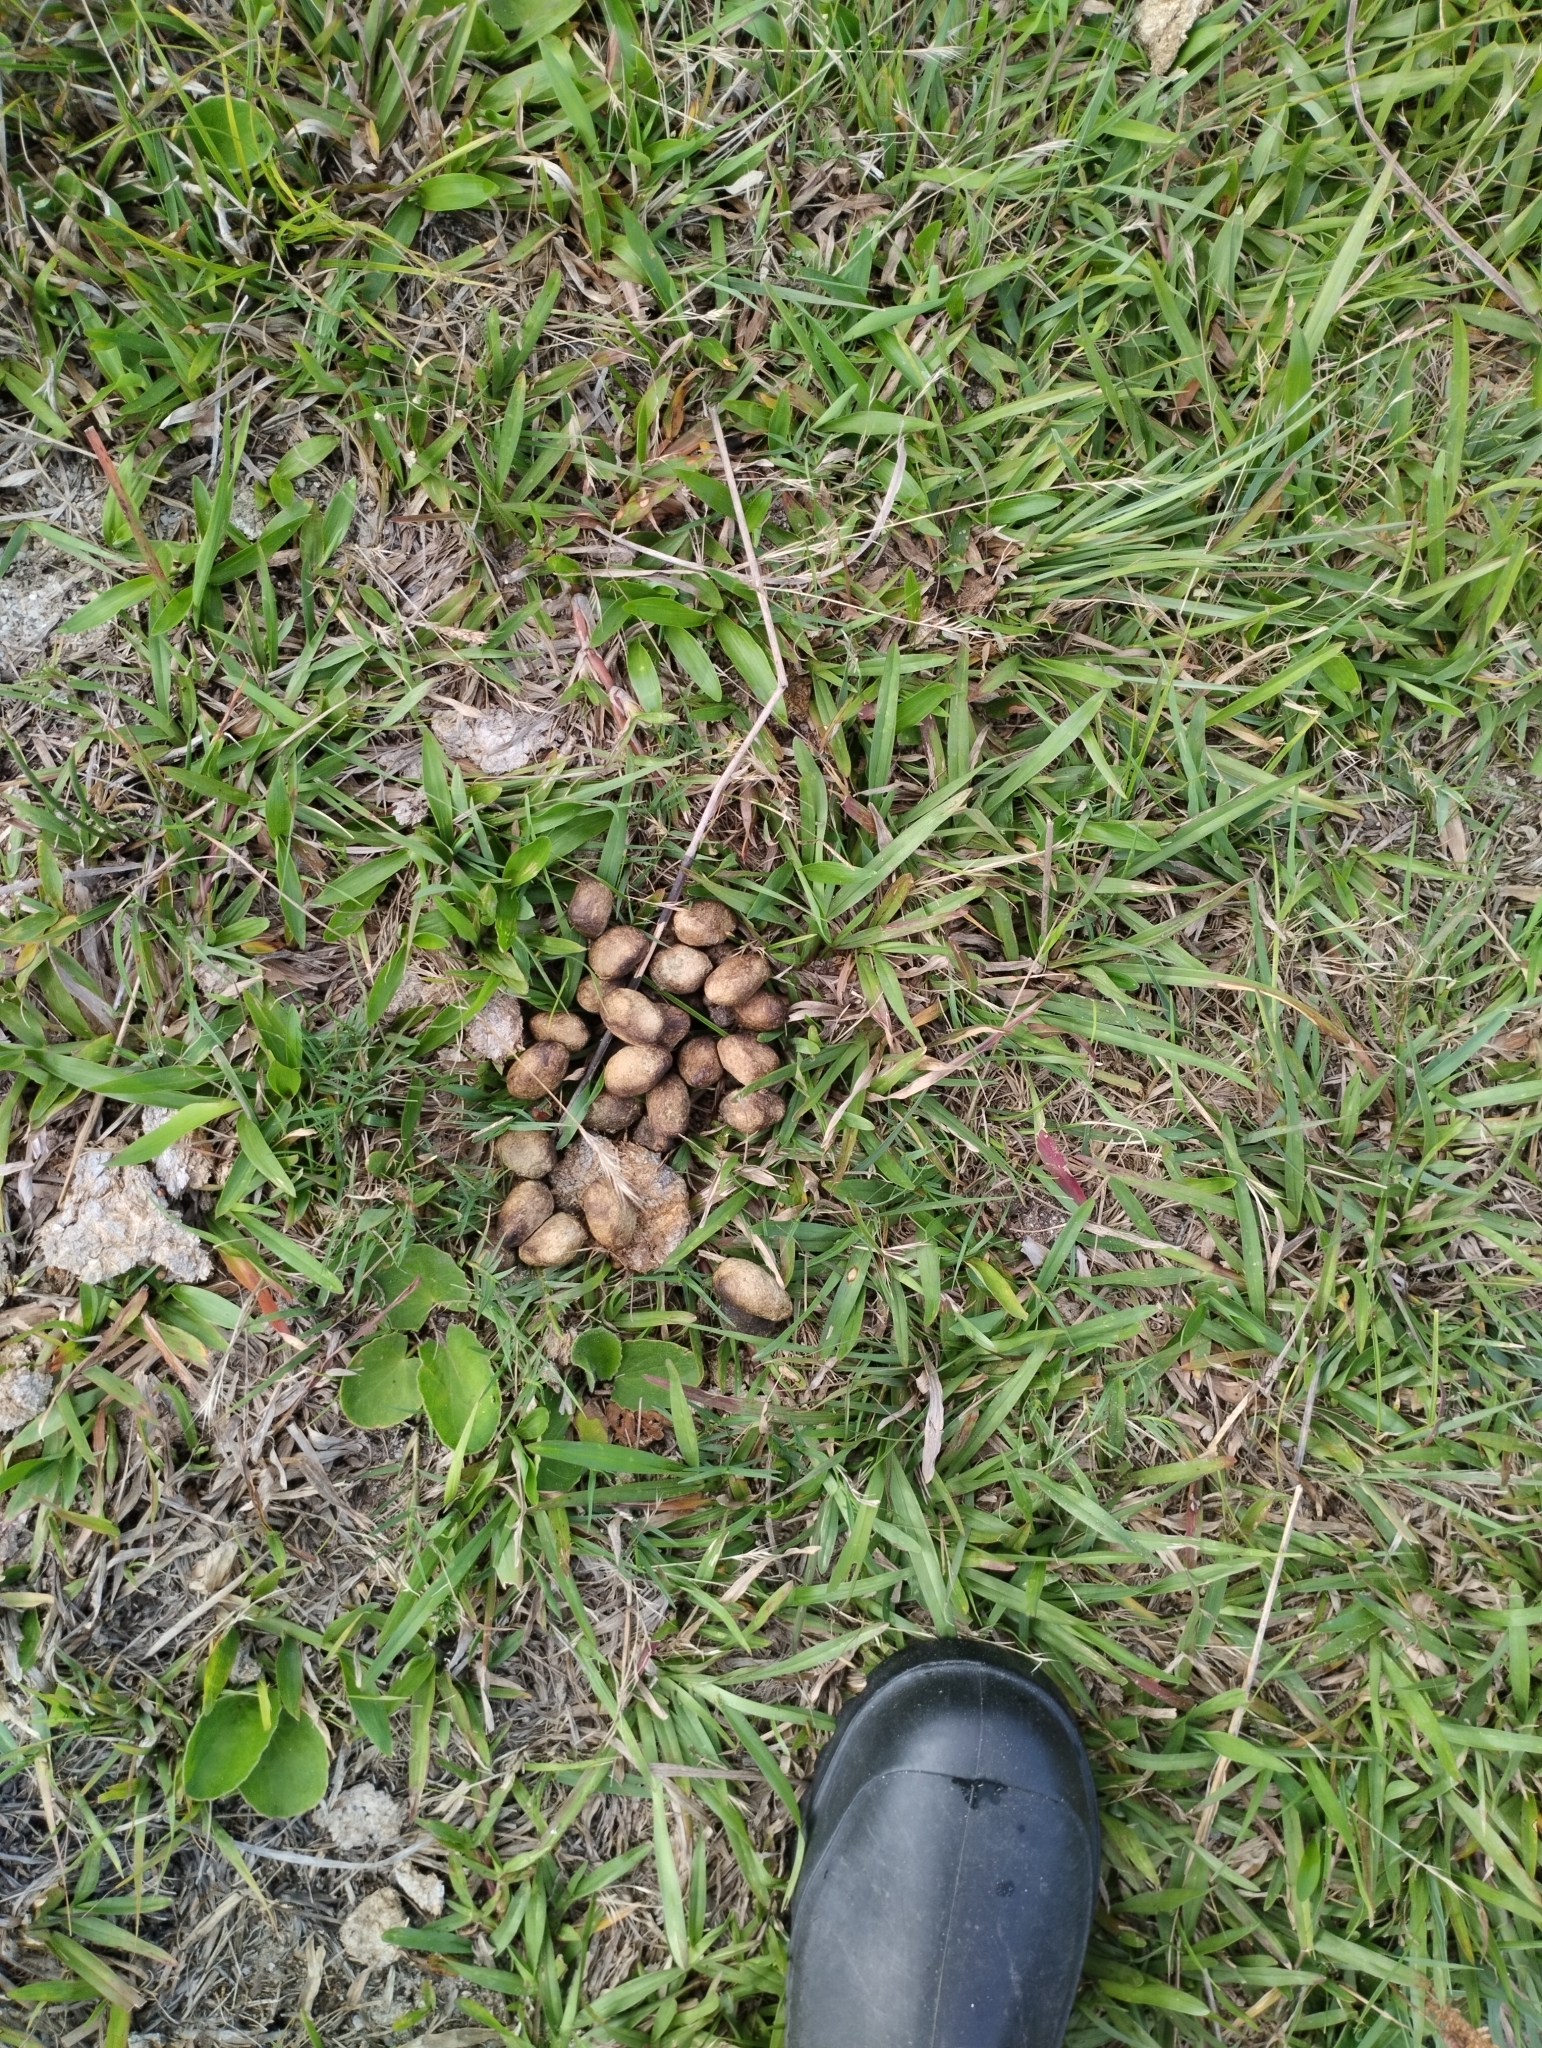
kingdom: Animalia
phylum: Chordata
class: Mammalia
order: Rodentia
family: Caviidae
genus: Hydrochoerus
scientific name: Hydrochoerus hydrochaeris
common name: Capybara
